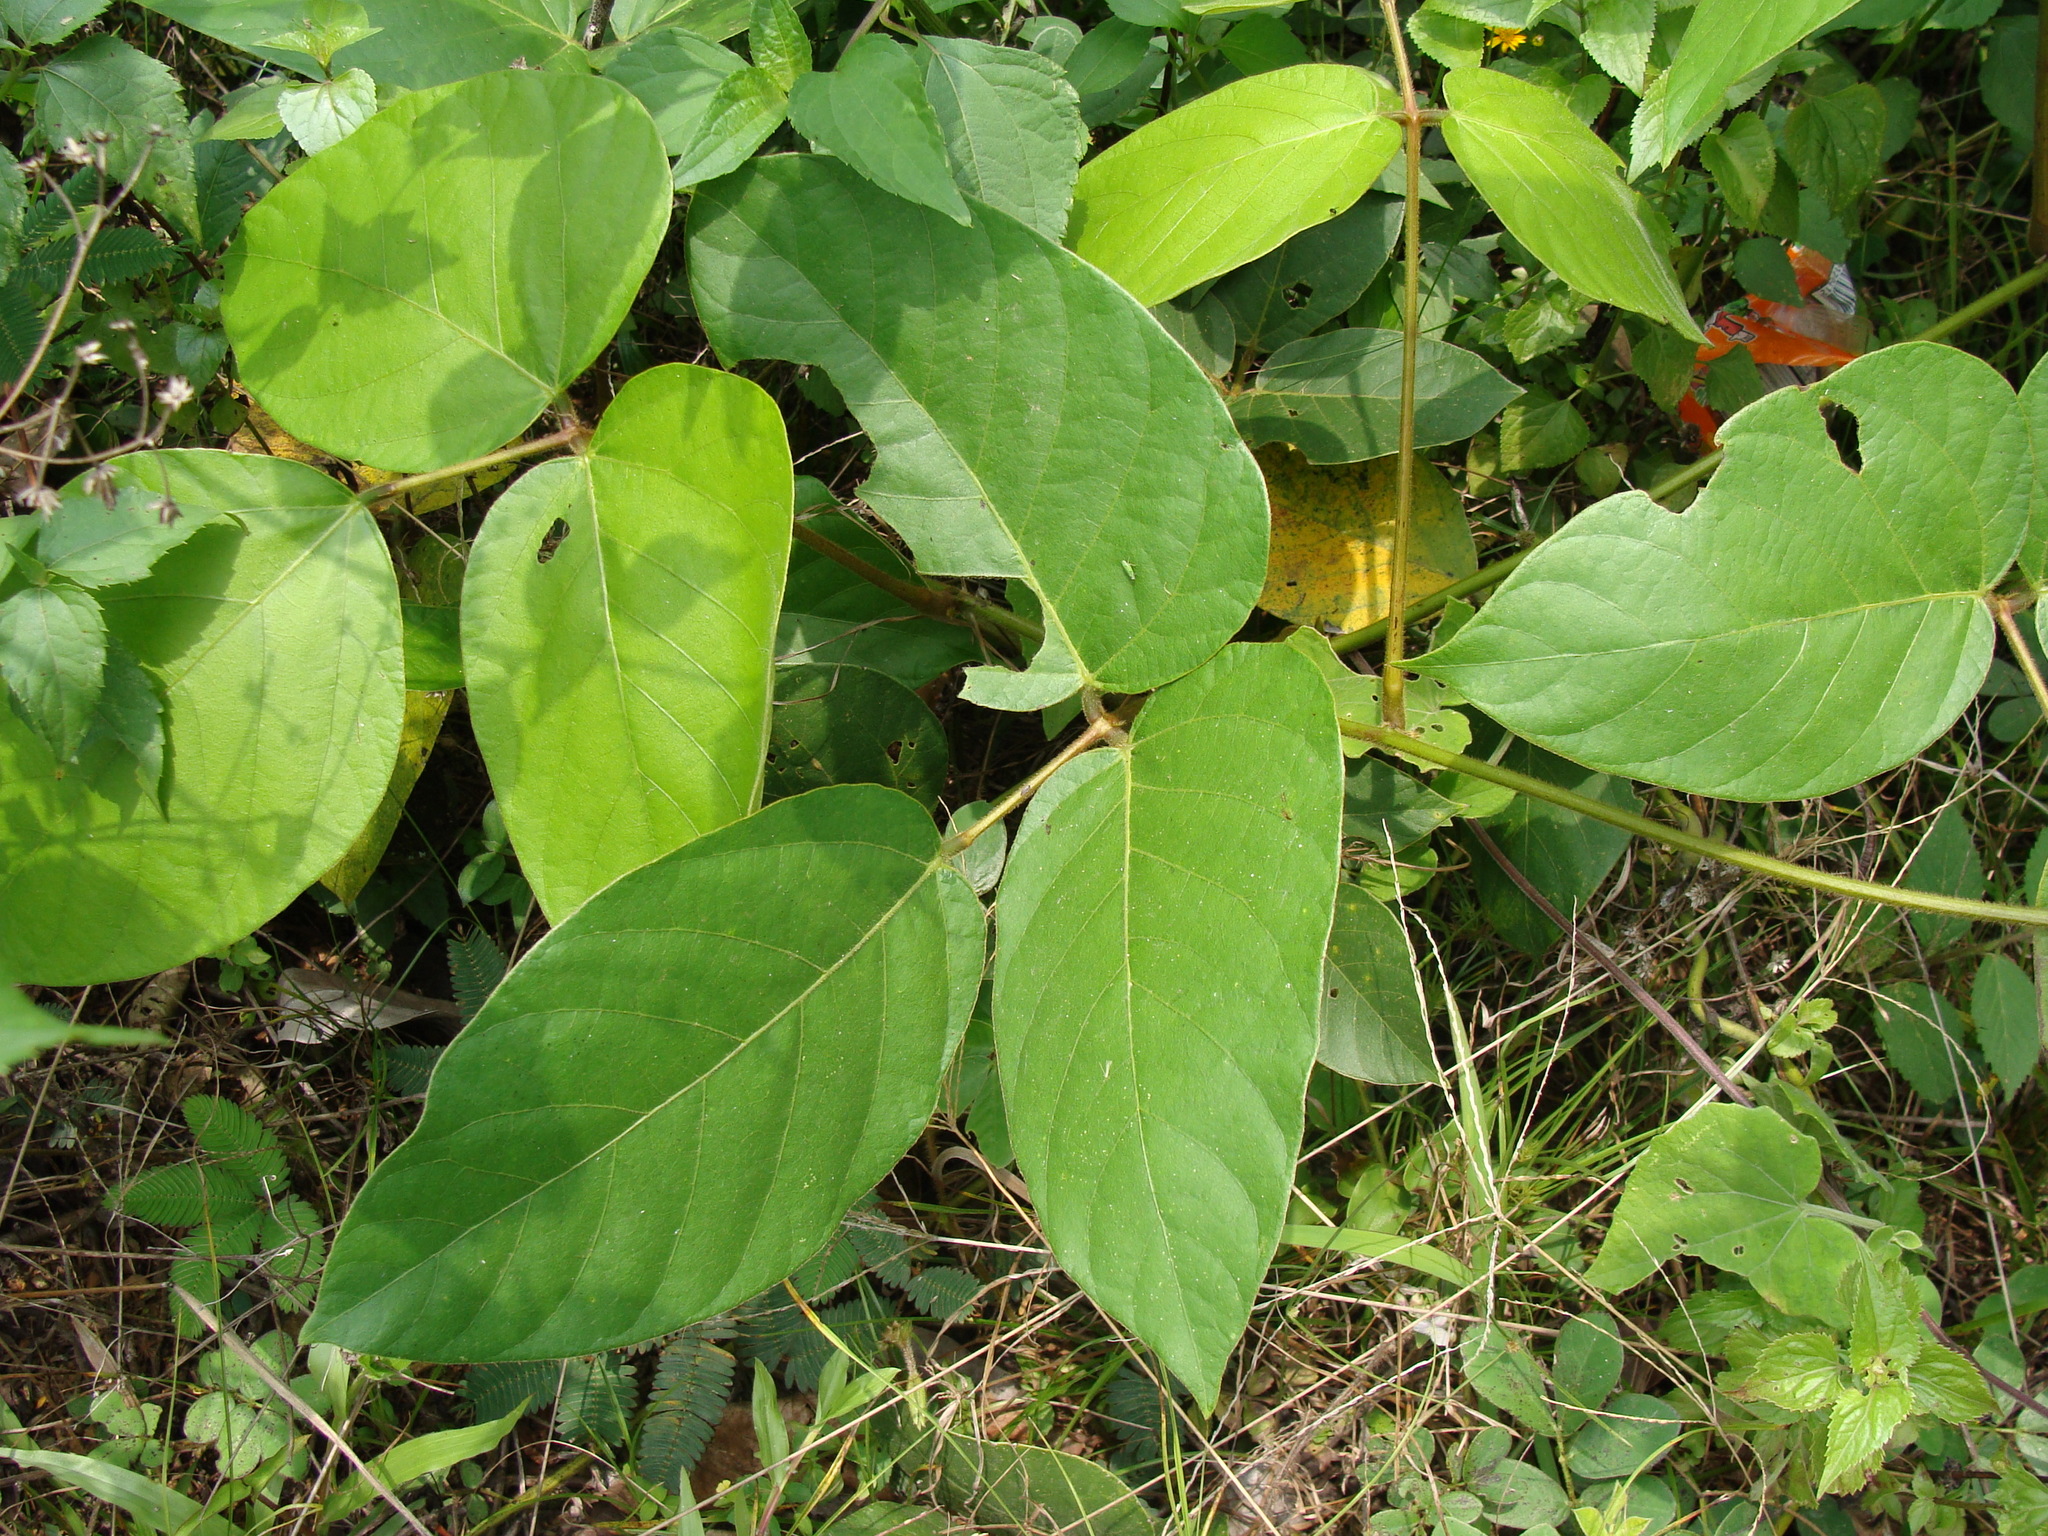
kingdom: Plantae
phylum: Tracheophyta
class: Magnoliopsida
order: Fabales
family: Fabaceae
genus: Mucuna
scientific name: Mucuna argyrophylla
